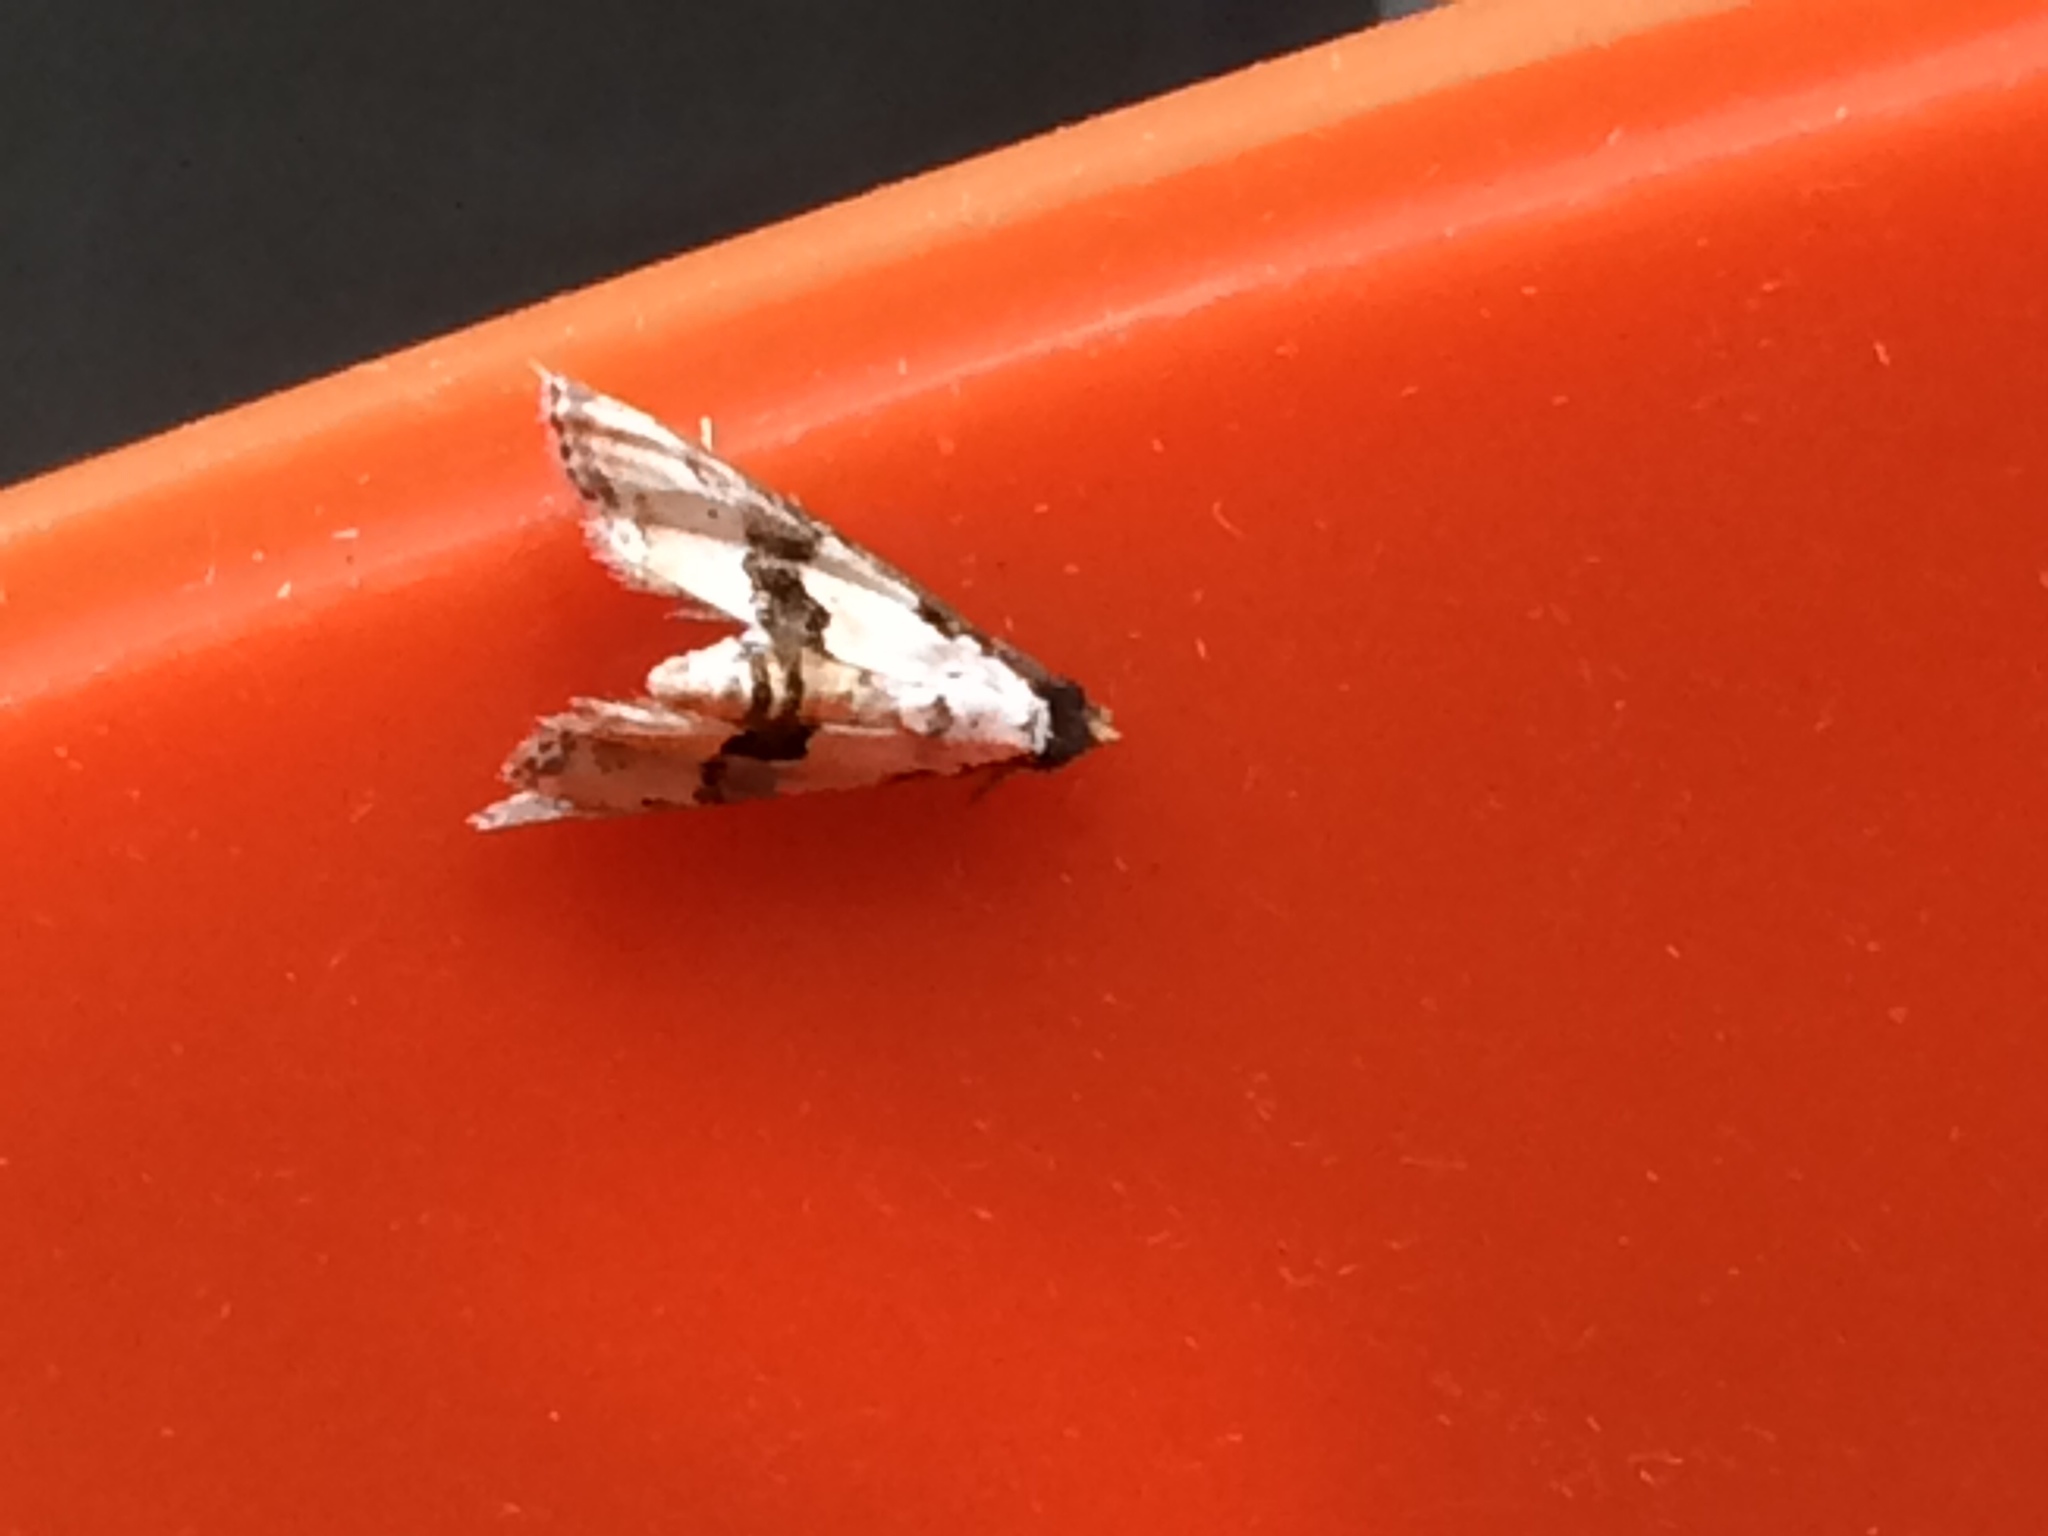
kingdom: Animalia
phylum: Arthropoda
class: Insecta
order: Lepidoptera
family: Noctuidae
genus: Nigetia
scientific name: Nigetia formosalis
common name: Thin-winged owlet
